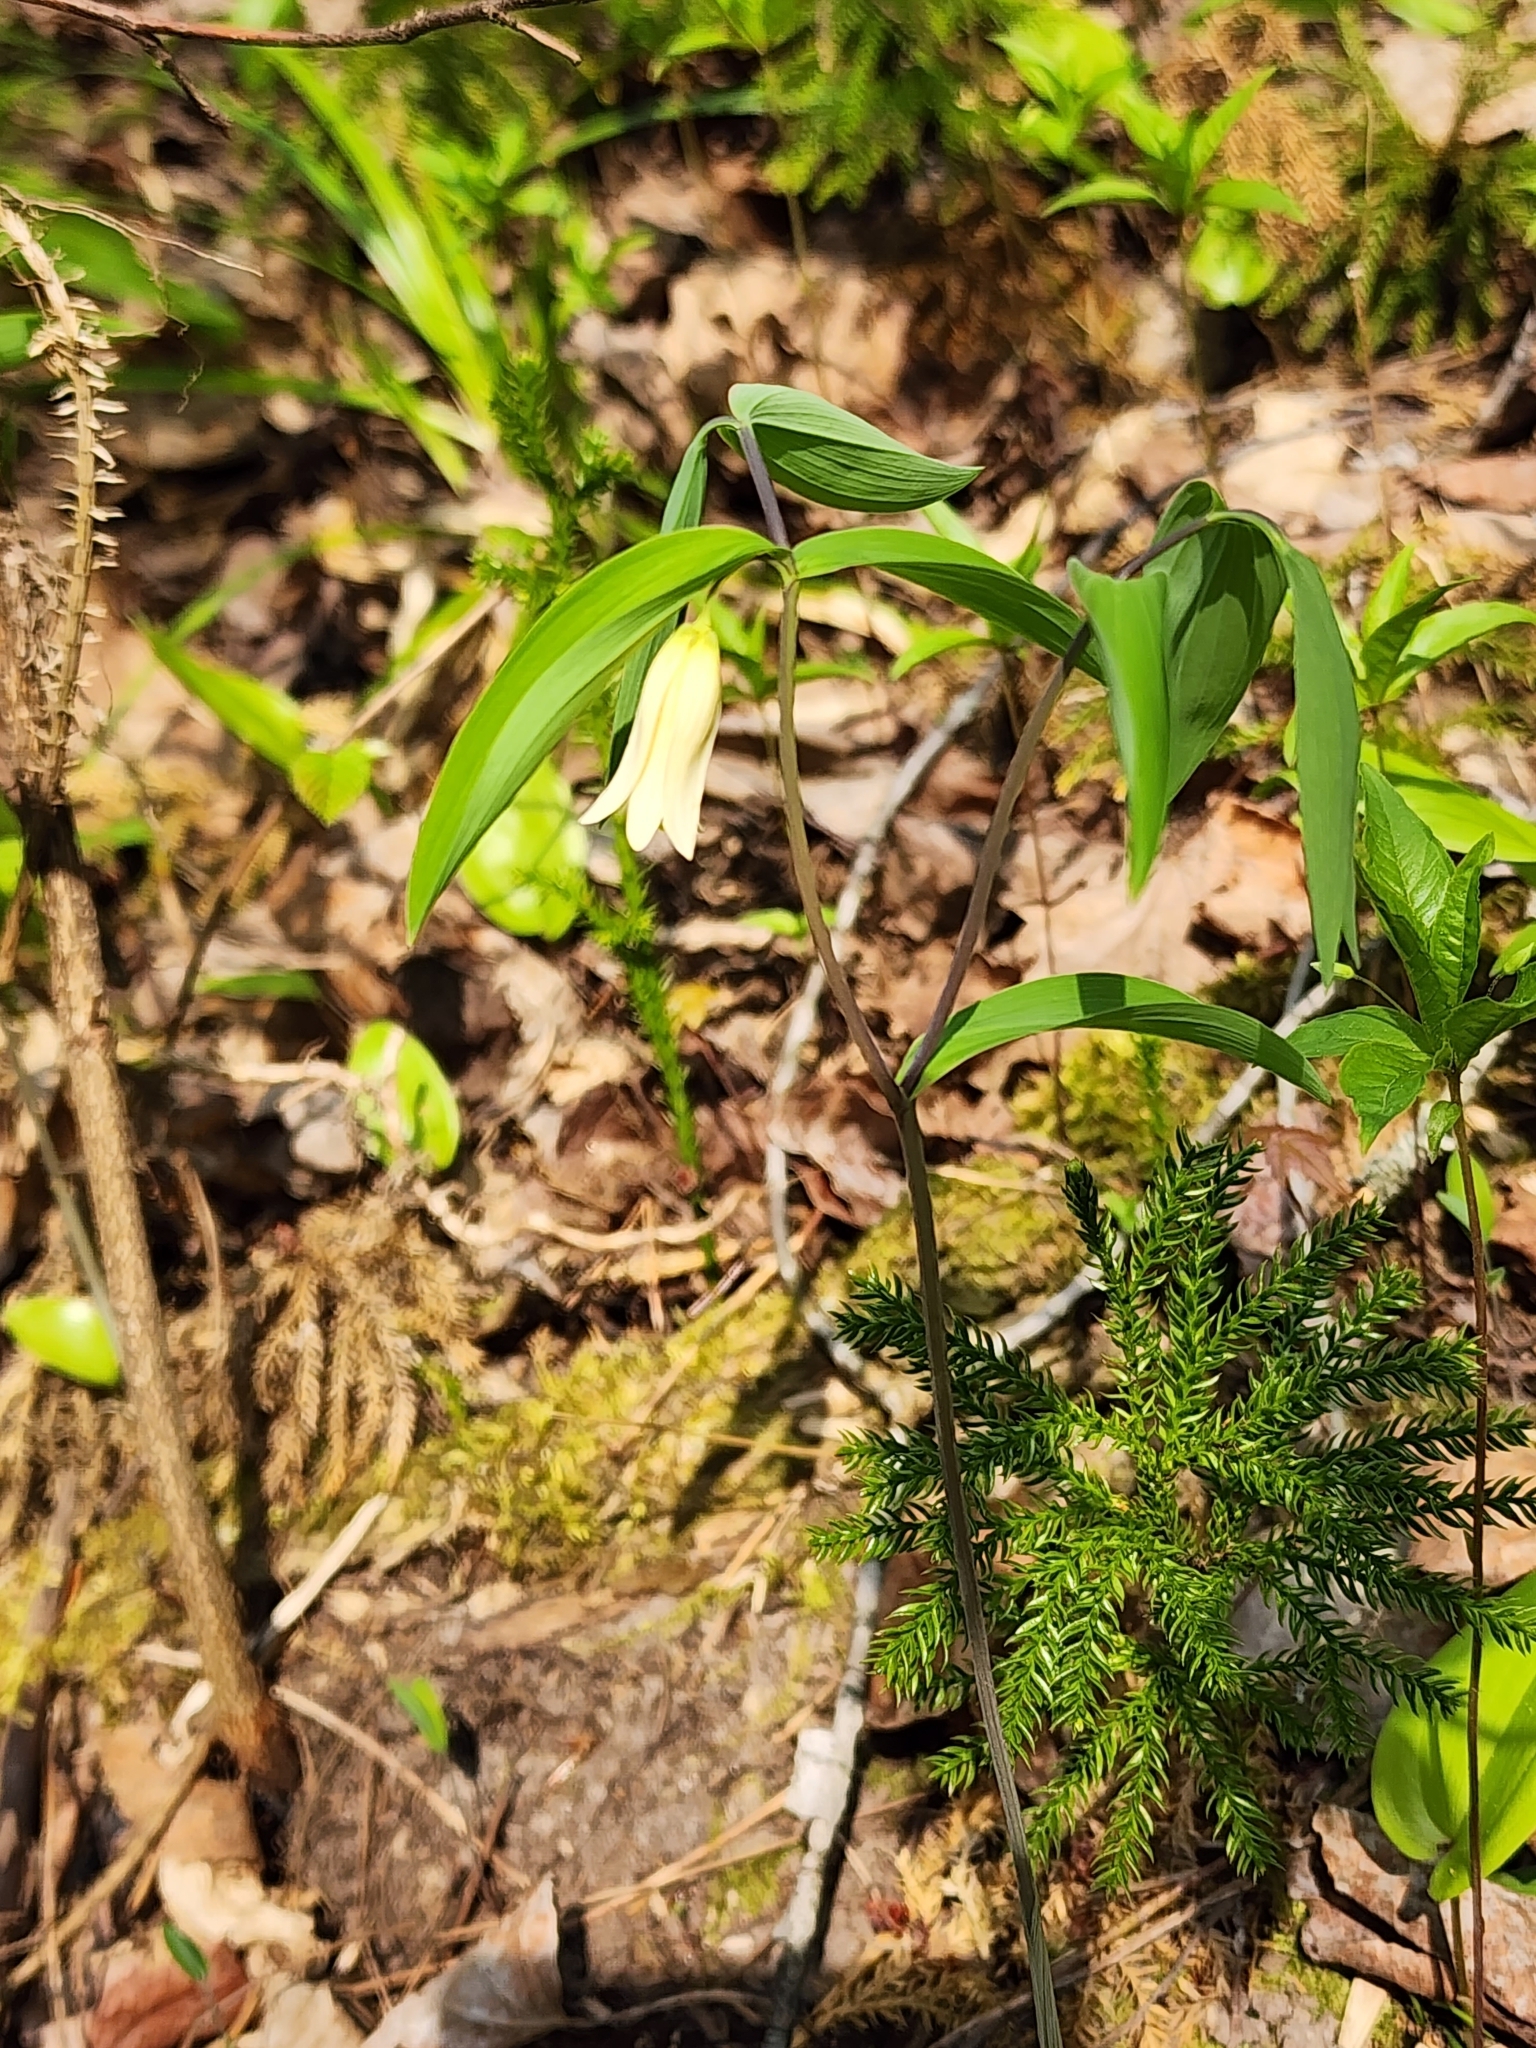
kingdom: Plantae
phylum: Tracheophyta
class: Liliopsida
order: Liliales
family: Colchicaceae
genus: Uvularia
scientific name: Uvularia sessilifolia
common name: Straw-lily
